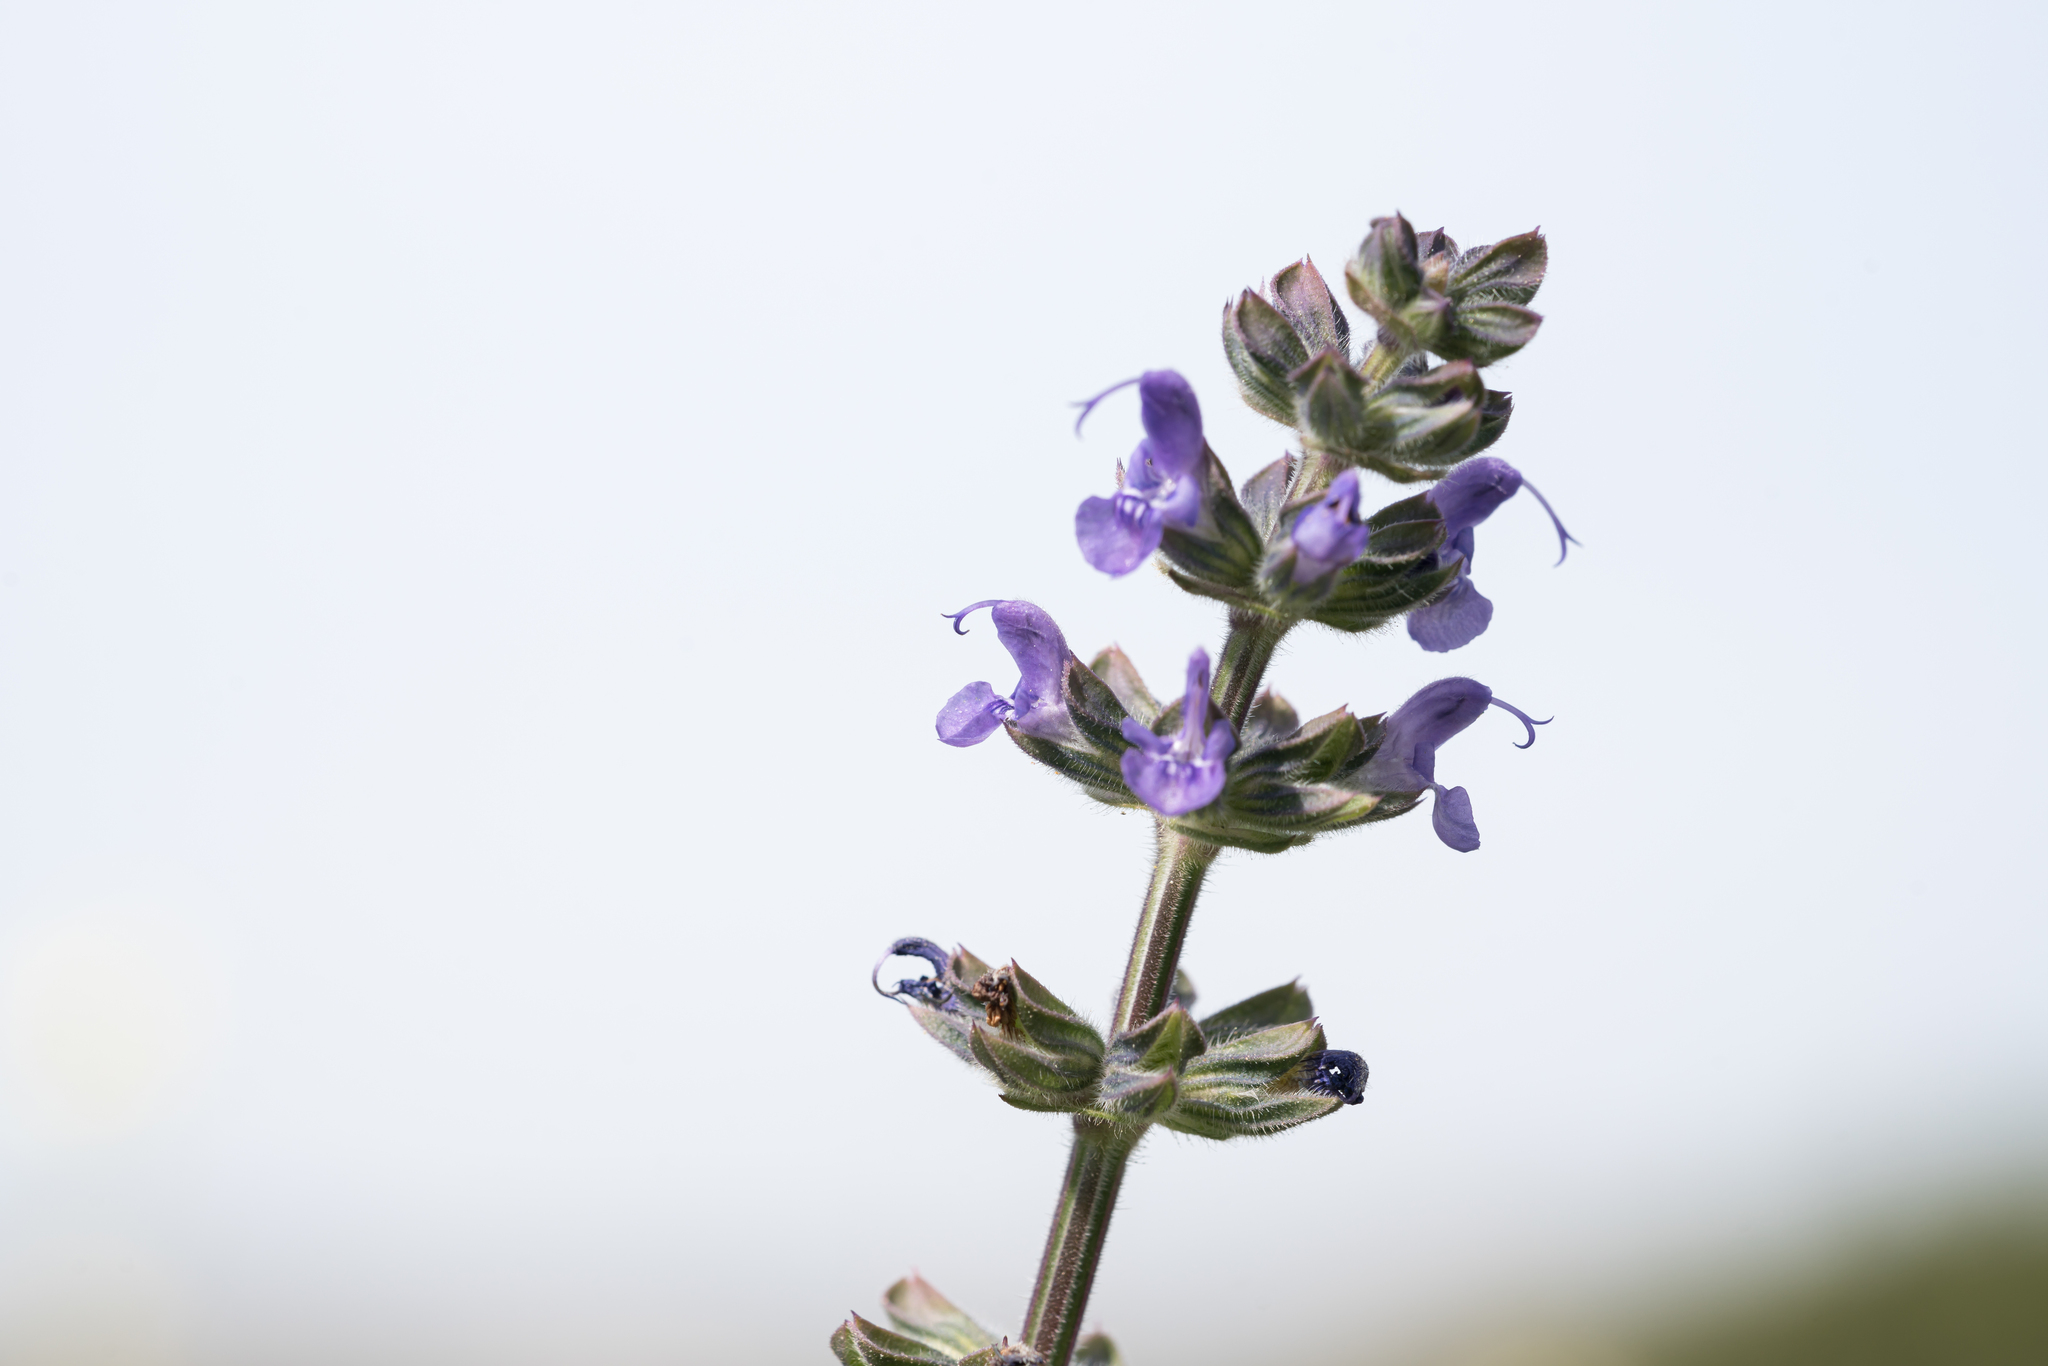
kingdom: Plantae
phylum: Tracheophyta
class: Magnoliopsida
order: Lamiales
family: Lamiaceae
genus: Salvia
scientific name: Salvia verbenaca
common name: Wild clary
